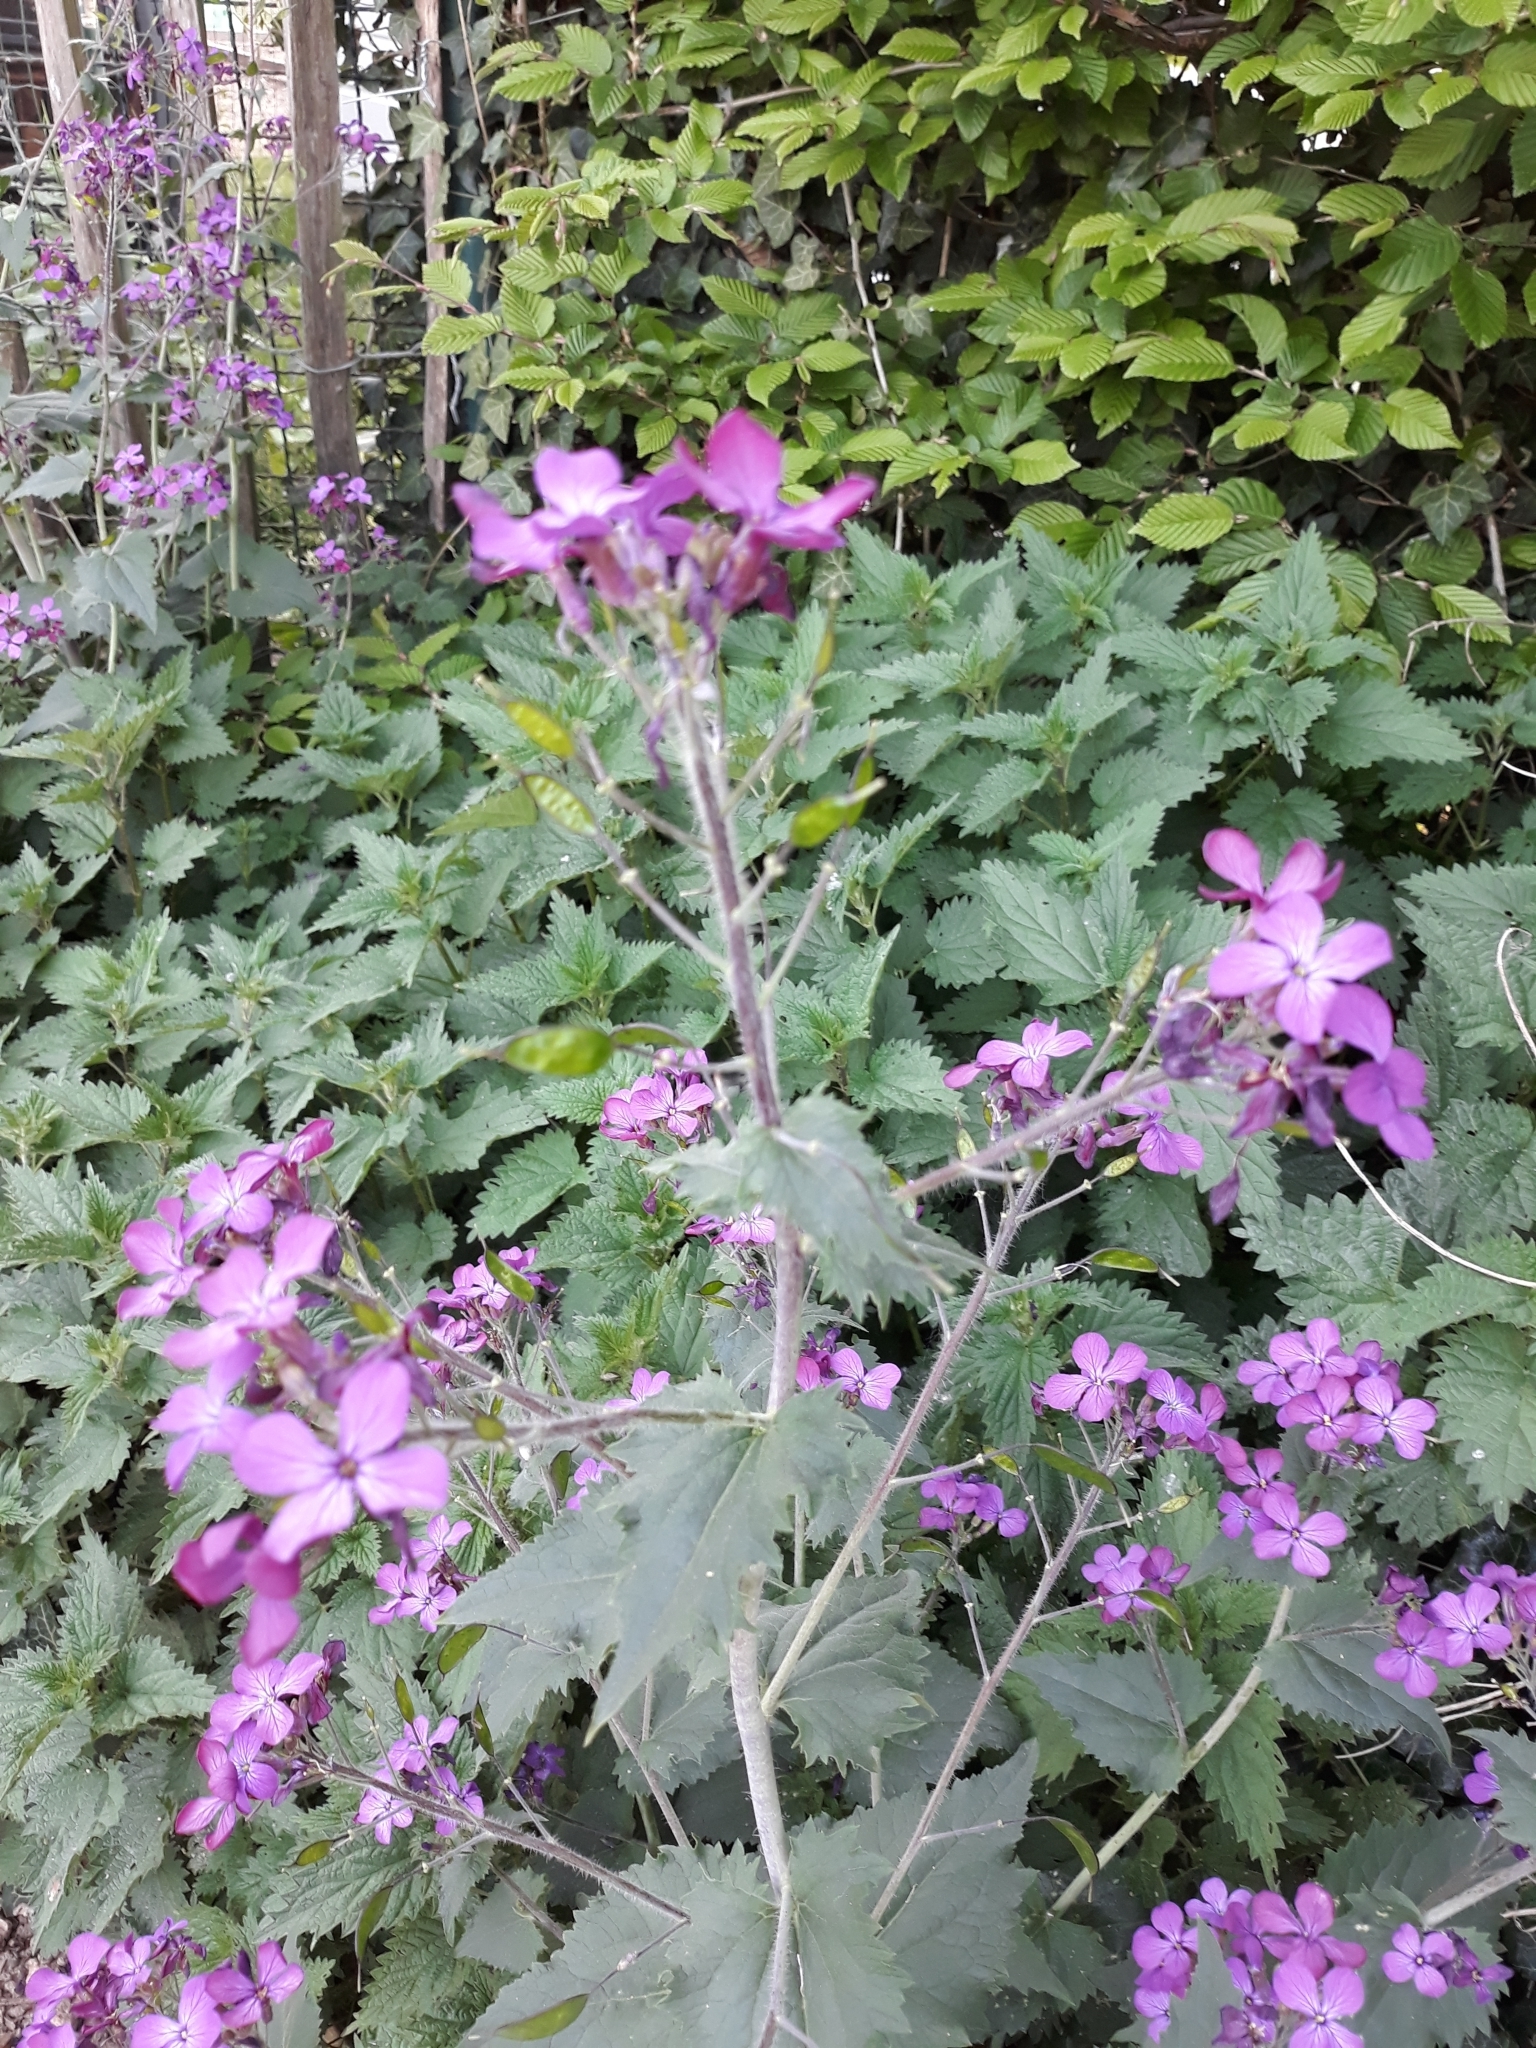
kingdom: Plantae
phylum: Tracheophyta
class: Magnoliopsida
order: Brassicales
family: Brassicaceae
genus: Lunaria
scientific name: Lunaria annua
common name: Honesty
